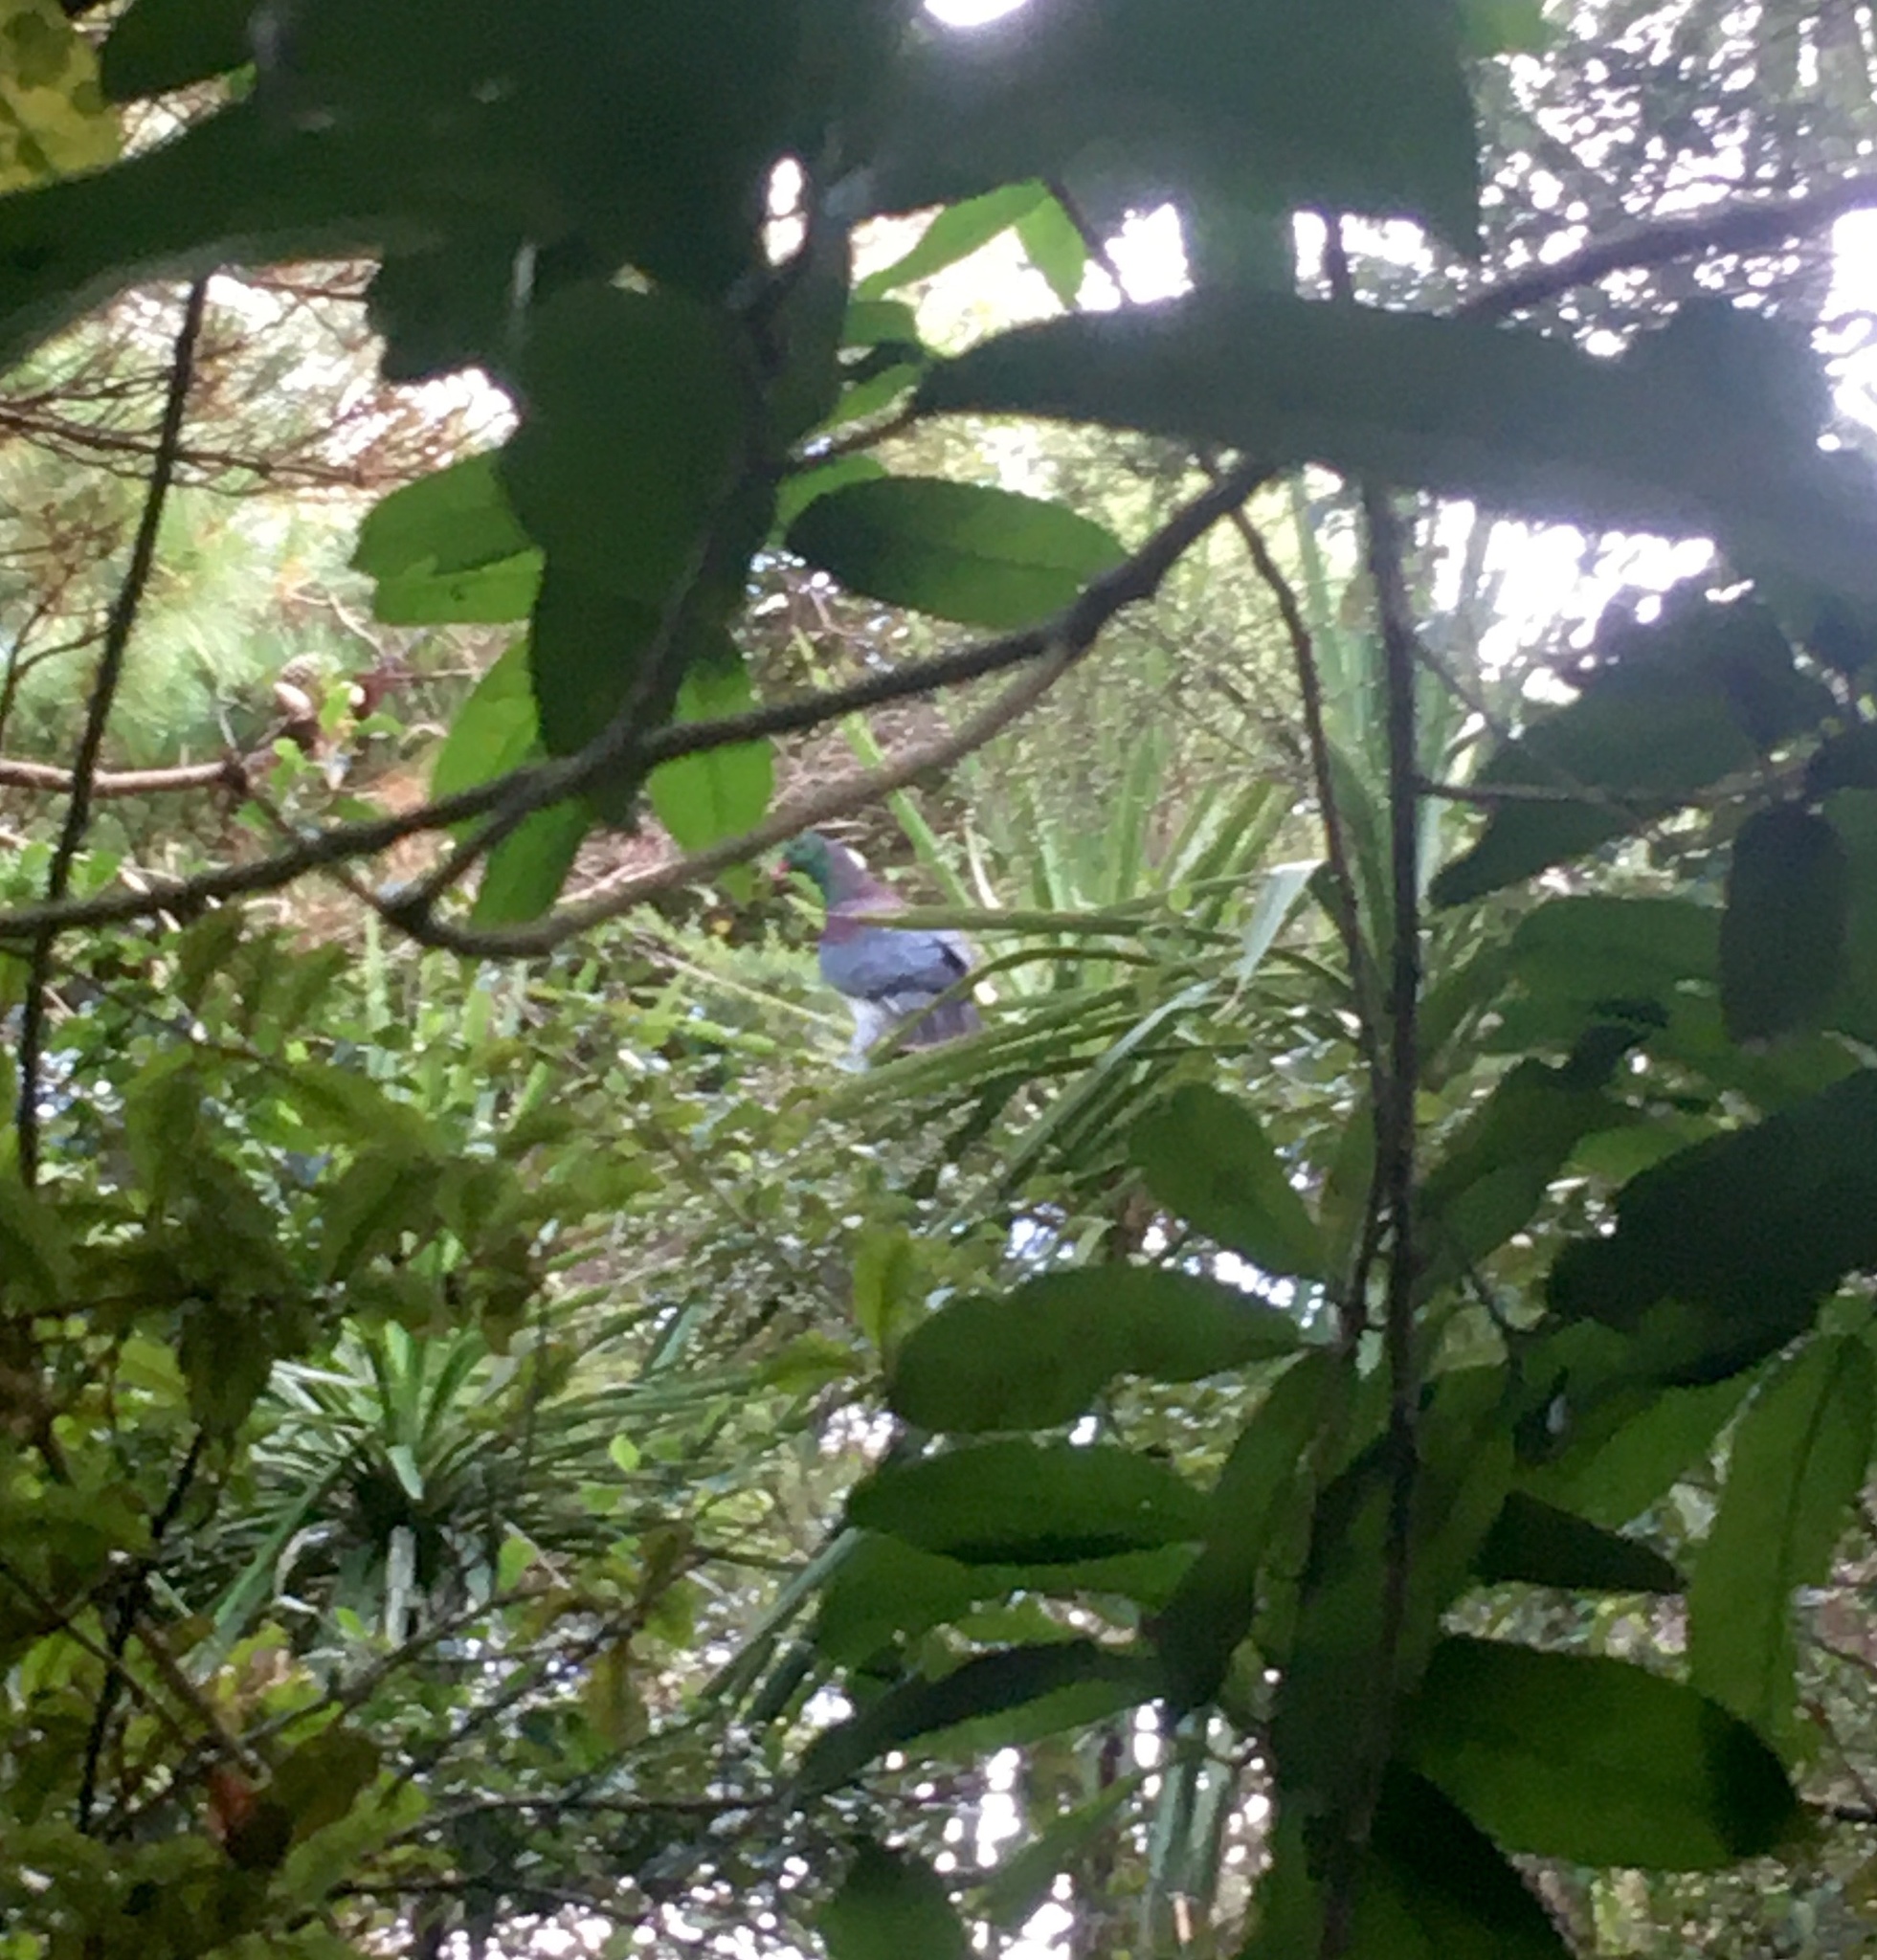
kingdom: Animalia
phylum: Chordata
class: Aves
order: Columbiformes
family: Columbidae
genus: Hemiphaga
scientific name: Hemiphaga novaeseelandiae
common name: New zealand pigeon
